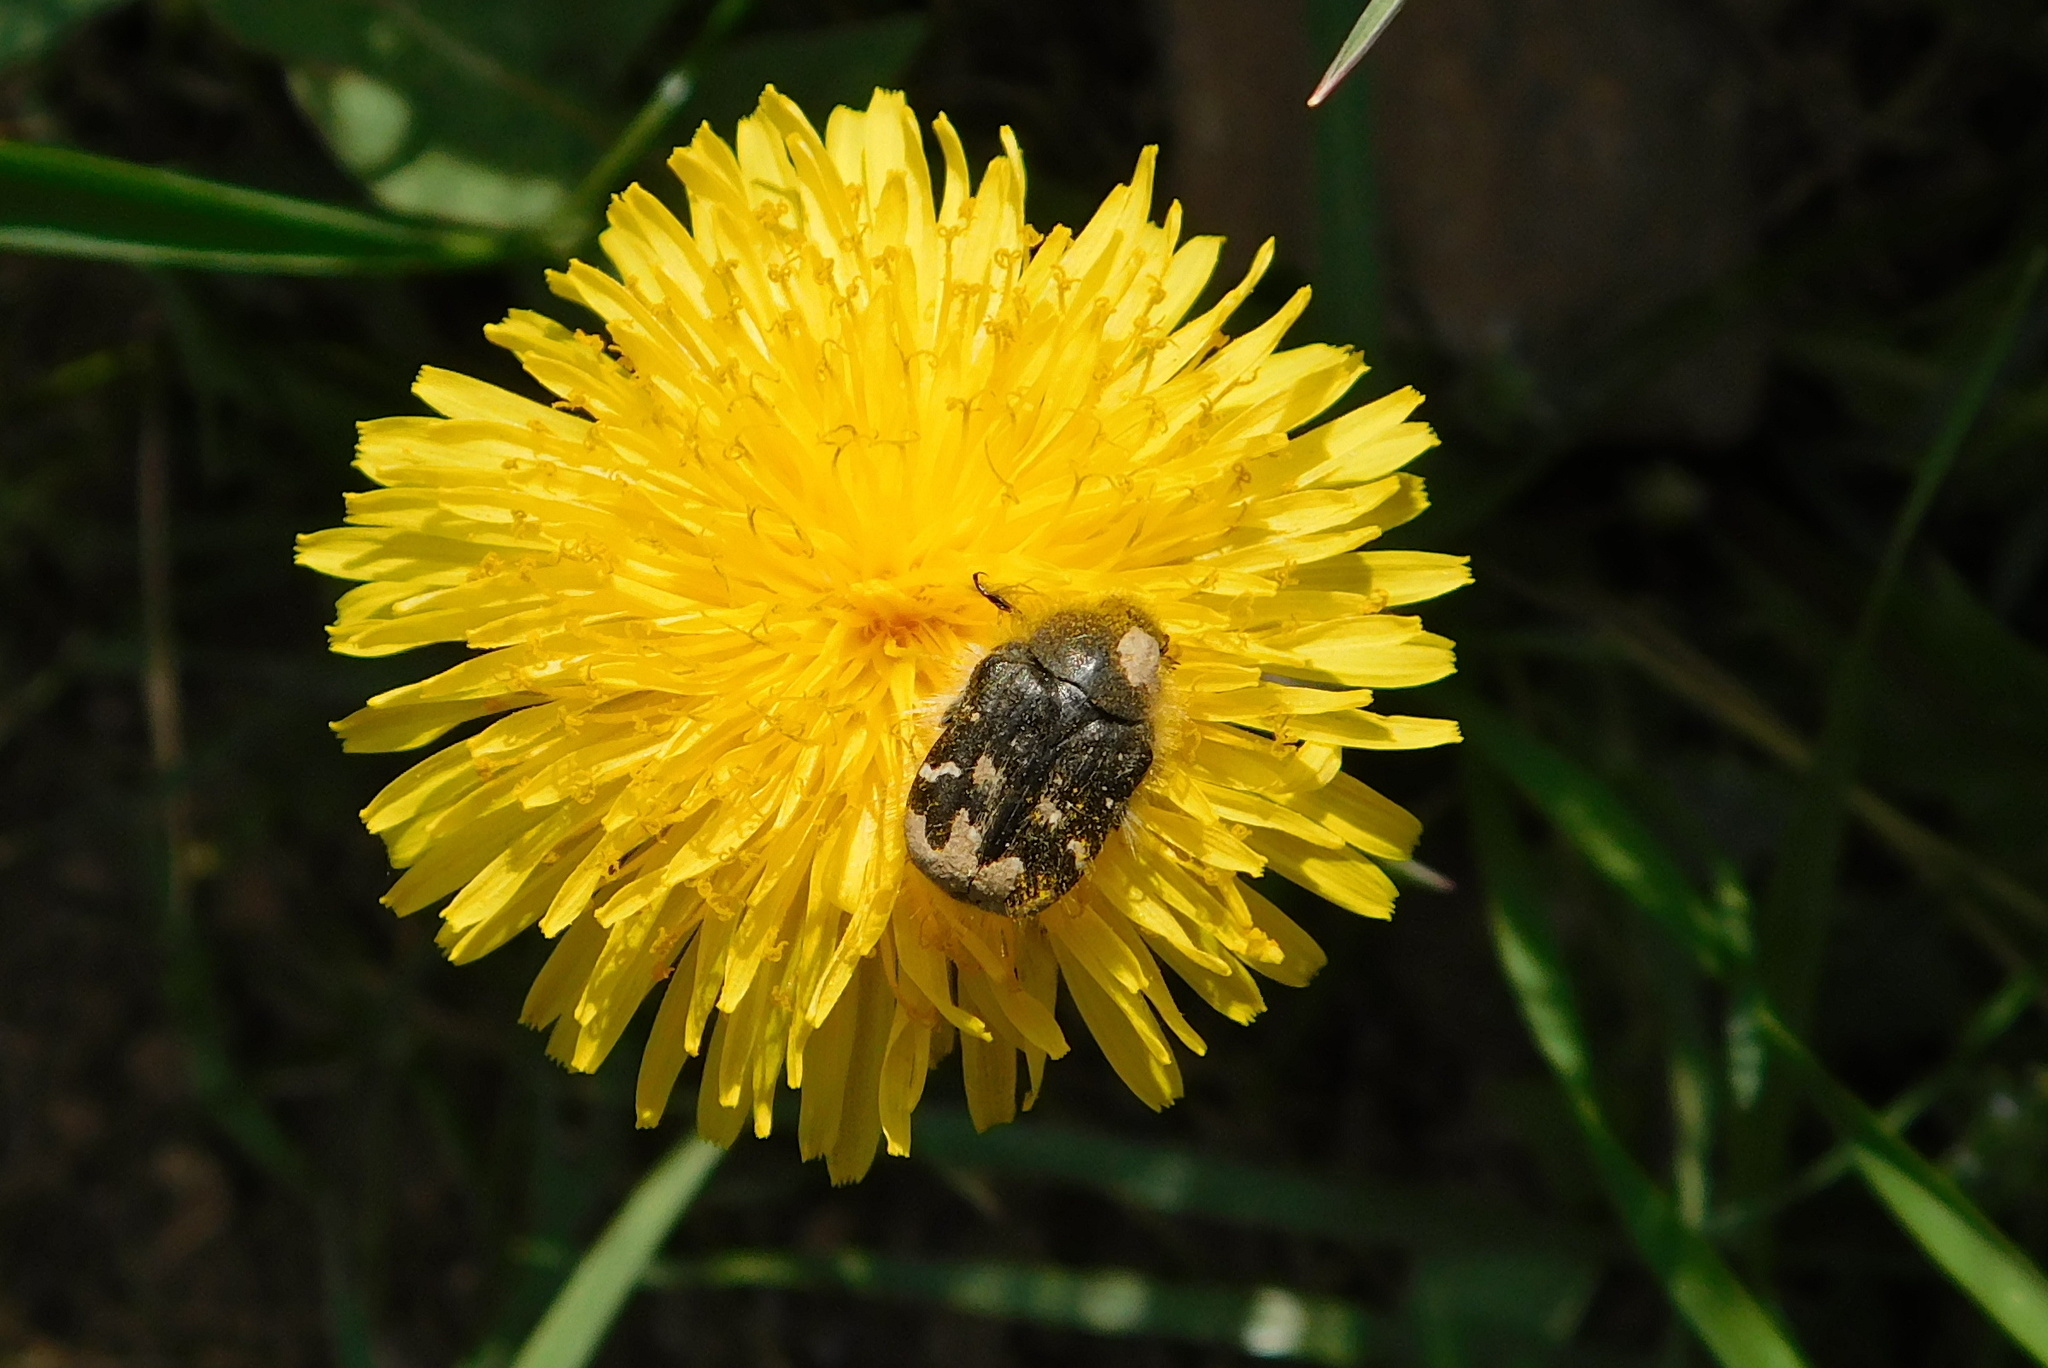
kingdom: Animalia
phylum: Arthropoda
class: Insecta
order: Coleoptera
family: Scarabaeidae
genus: Tropinota
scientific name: Tropinota hirta
